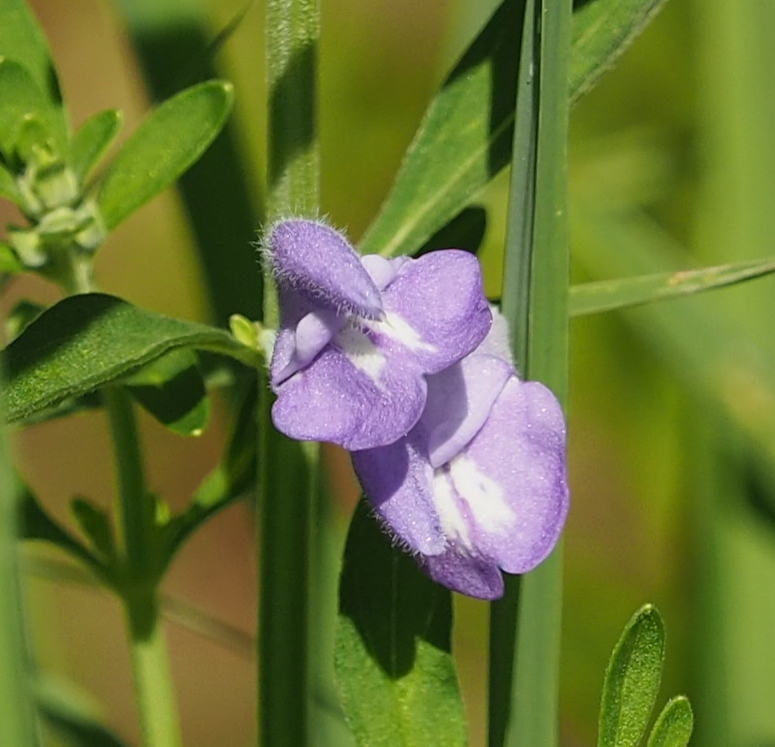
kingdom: Plantae
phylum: Tracheophyta
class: Magnoliopsida
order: Lamiales
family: Lamiaceae
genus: Scutellaria
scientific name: Scutellaria integrifolia
